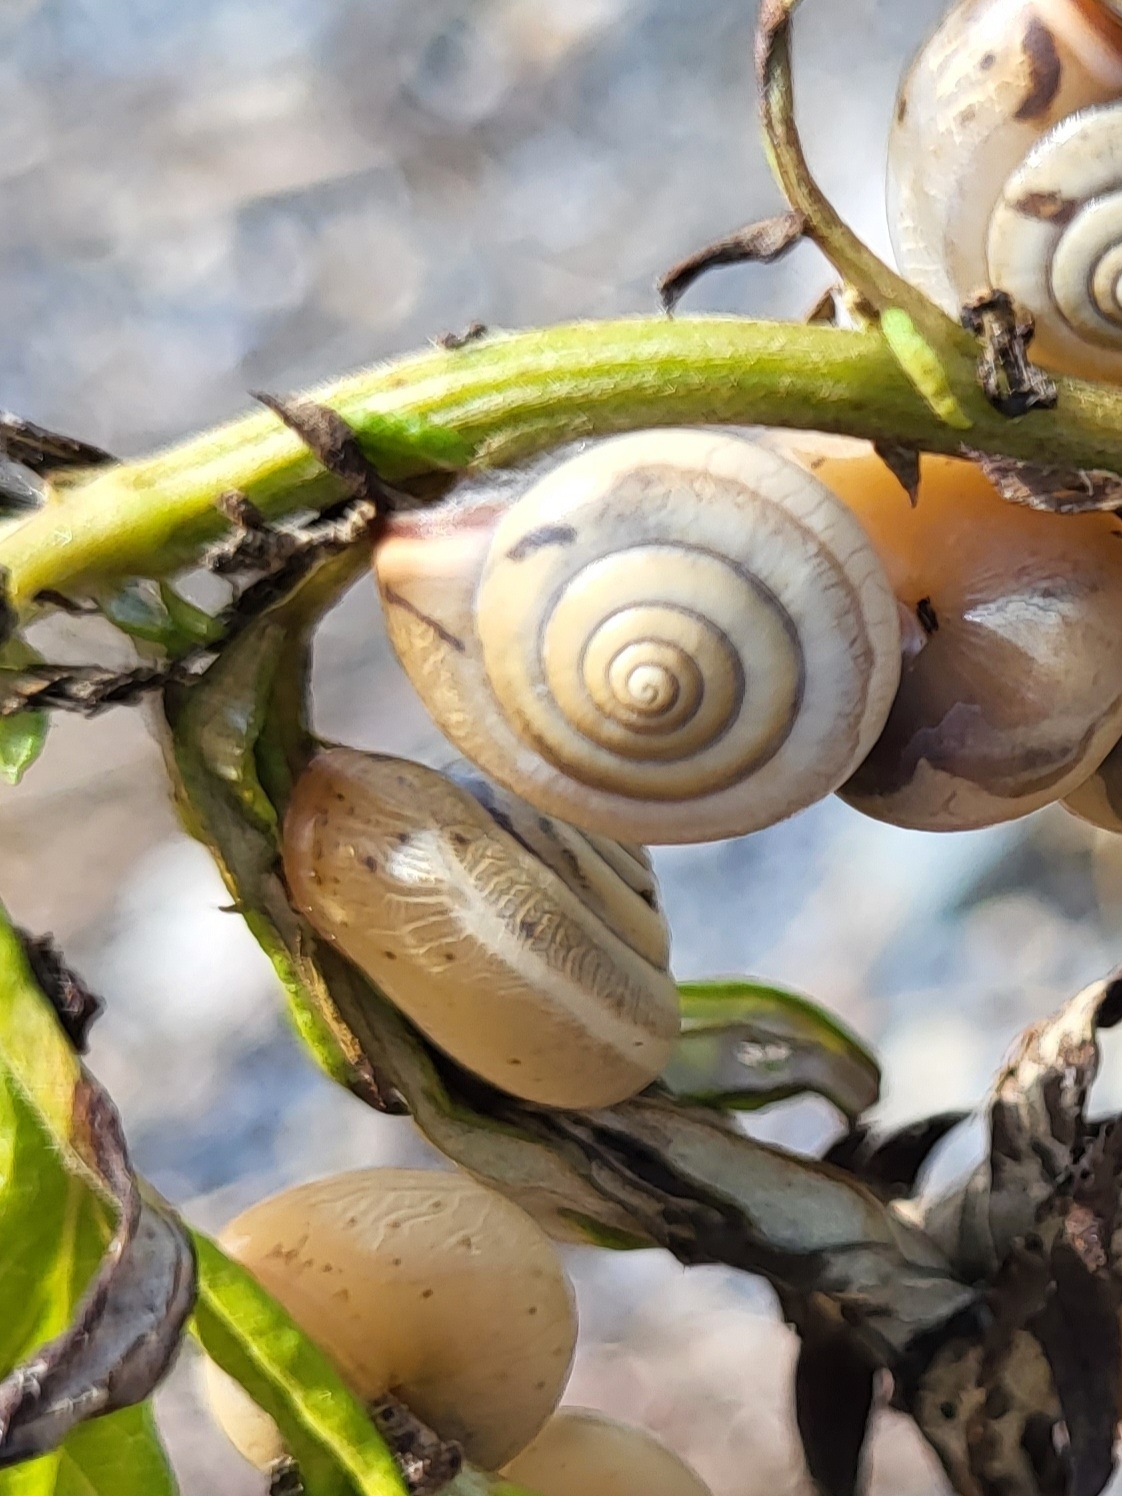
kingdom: Animalia
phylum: Mollusca
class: Gastropoda
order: Stylommatophora
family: Hygromiidae
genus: Monacha
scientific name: Monacha cartusiana
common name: Carthusian snail
